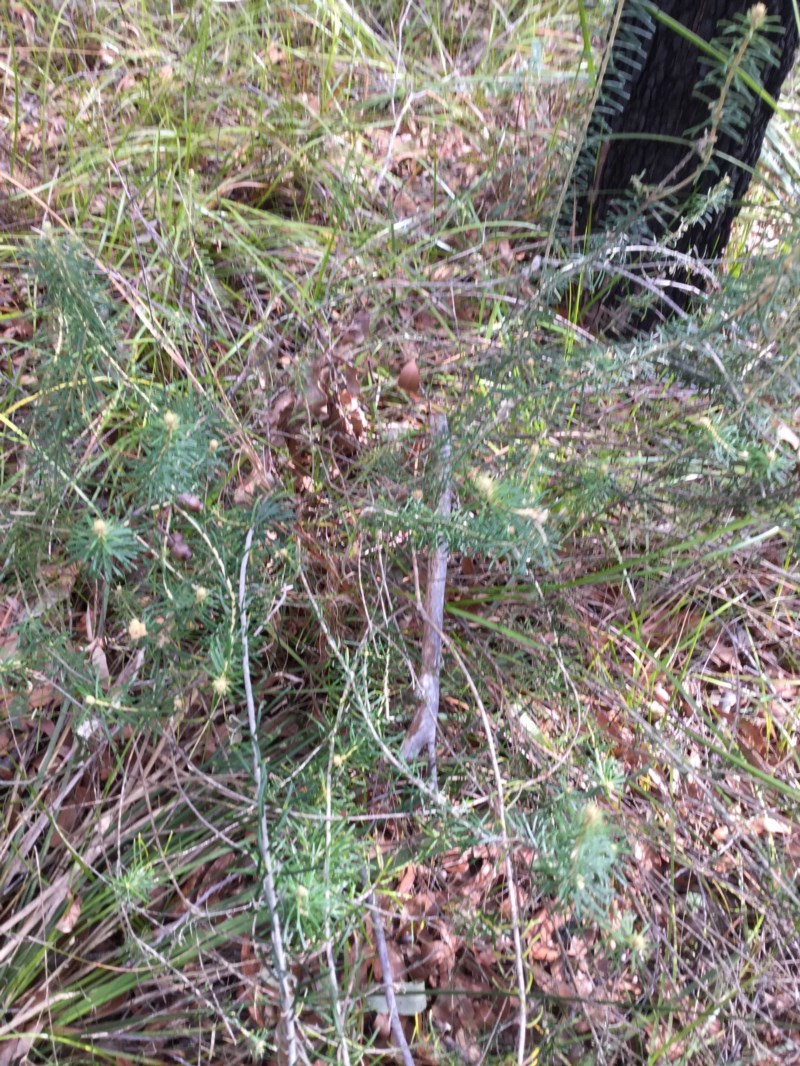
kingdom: Plantae
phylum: Tracheophyta
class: Magnoliopsida
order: Apiales
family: Araliaceae
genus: Astrotricha
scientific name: Astrotricha
